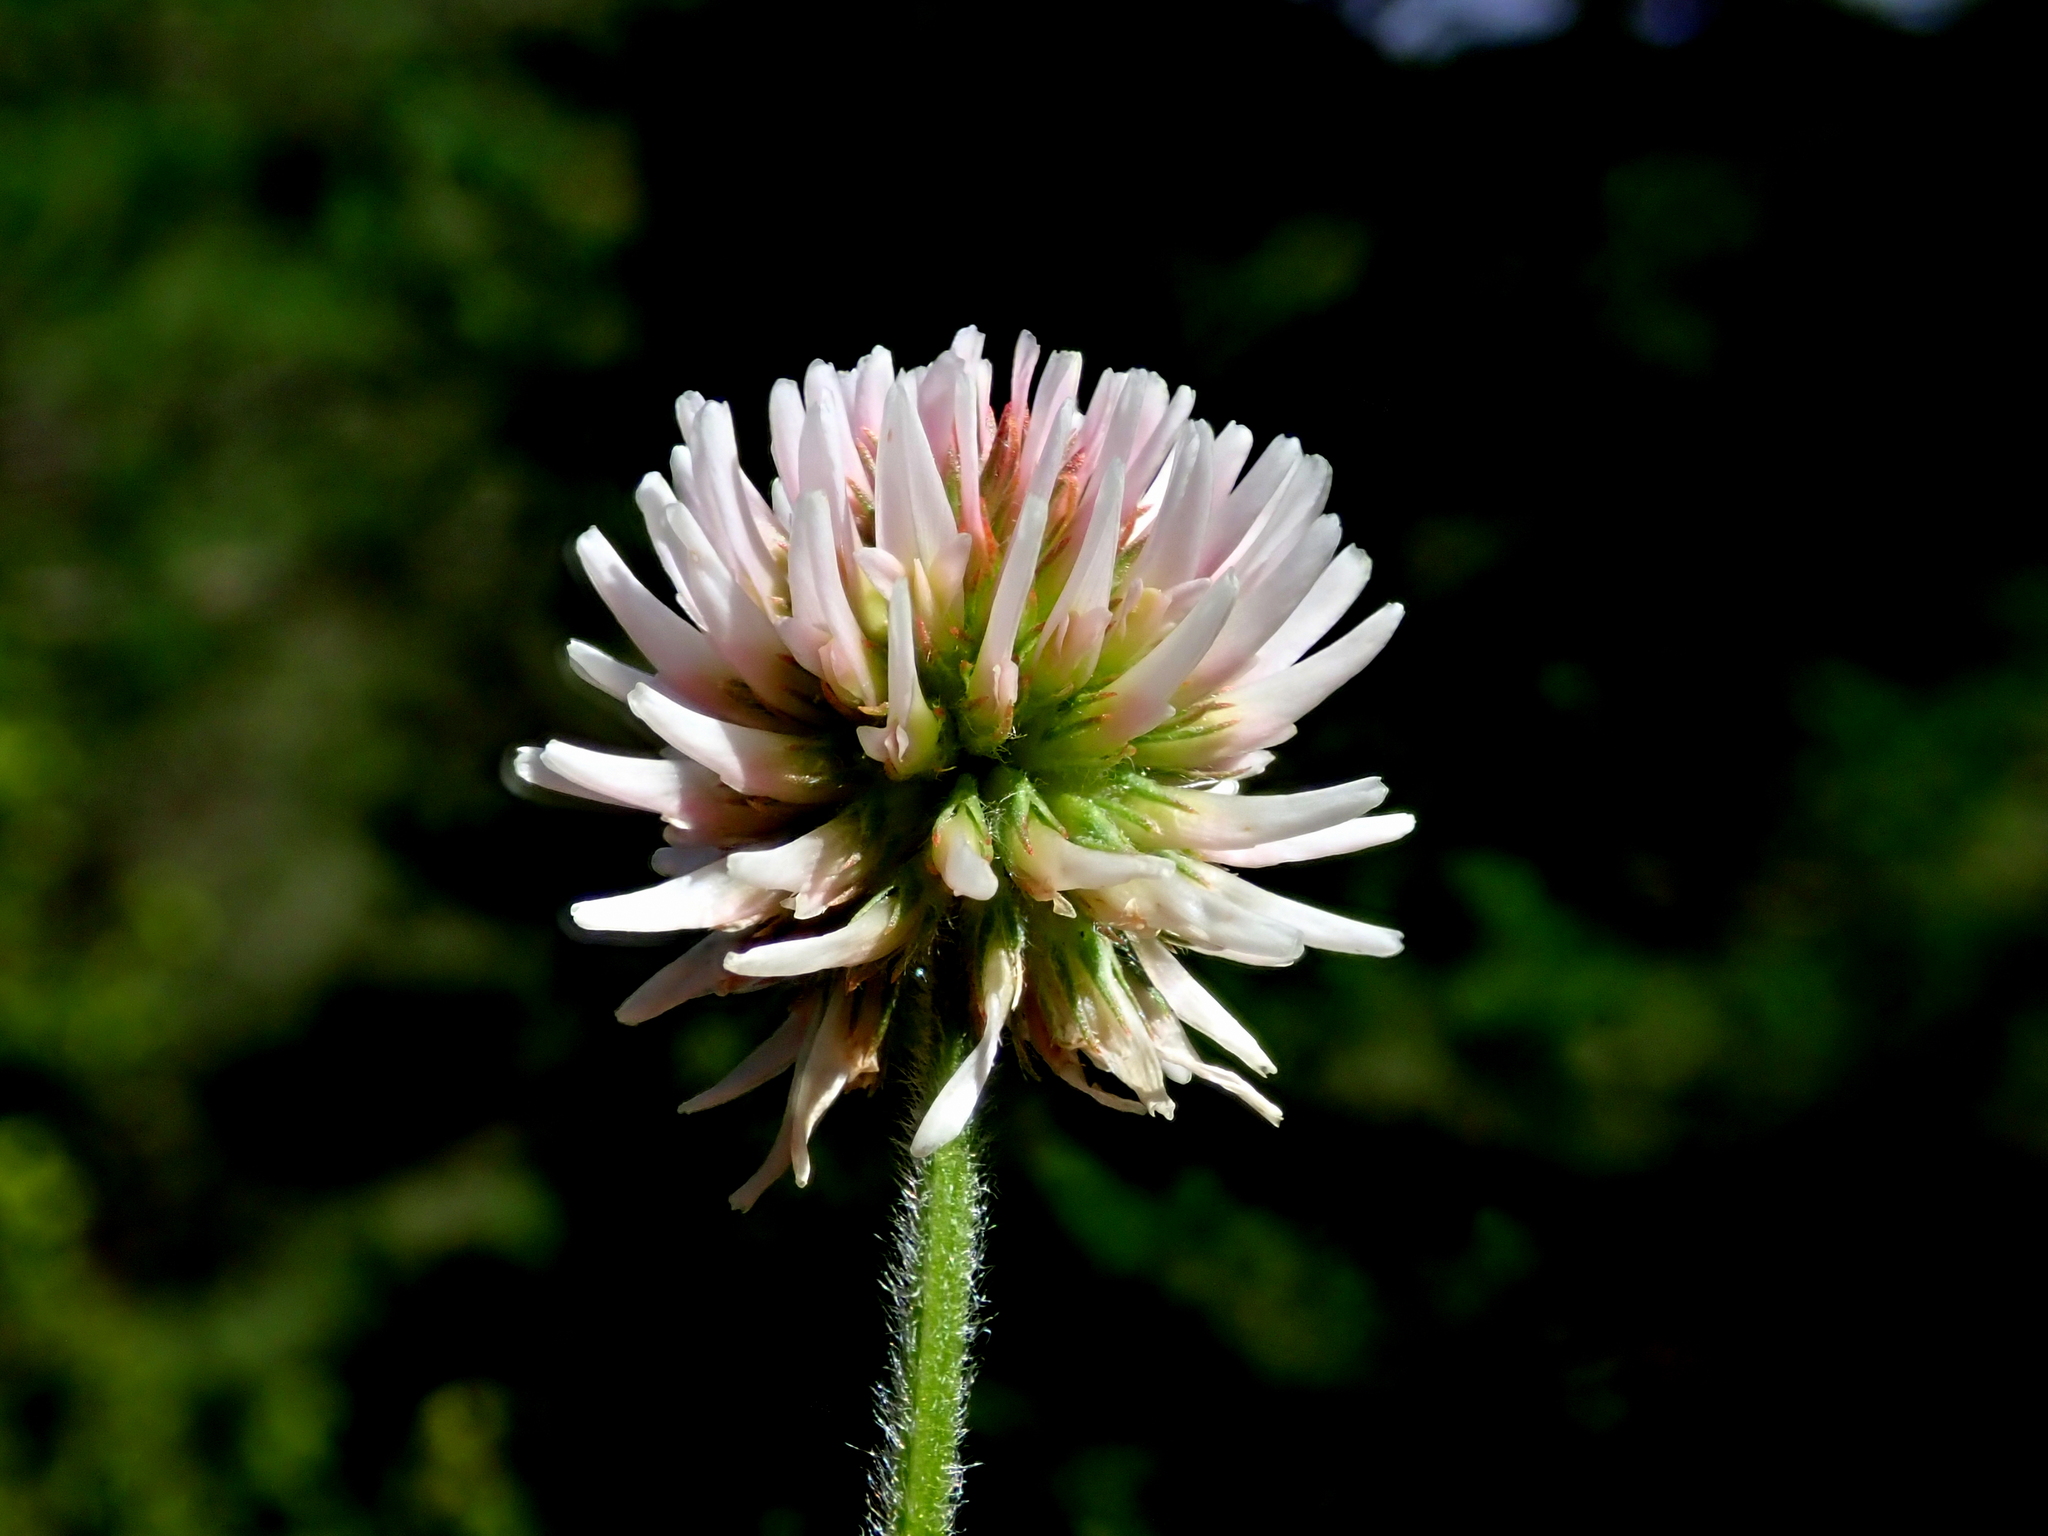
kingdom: Plantae
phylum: Tracheophyta
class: Magnoliopsida
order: Fabales
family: Fabaceae
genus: Trifolium
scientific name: Trifolium montanum
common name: Mountain clover
